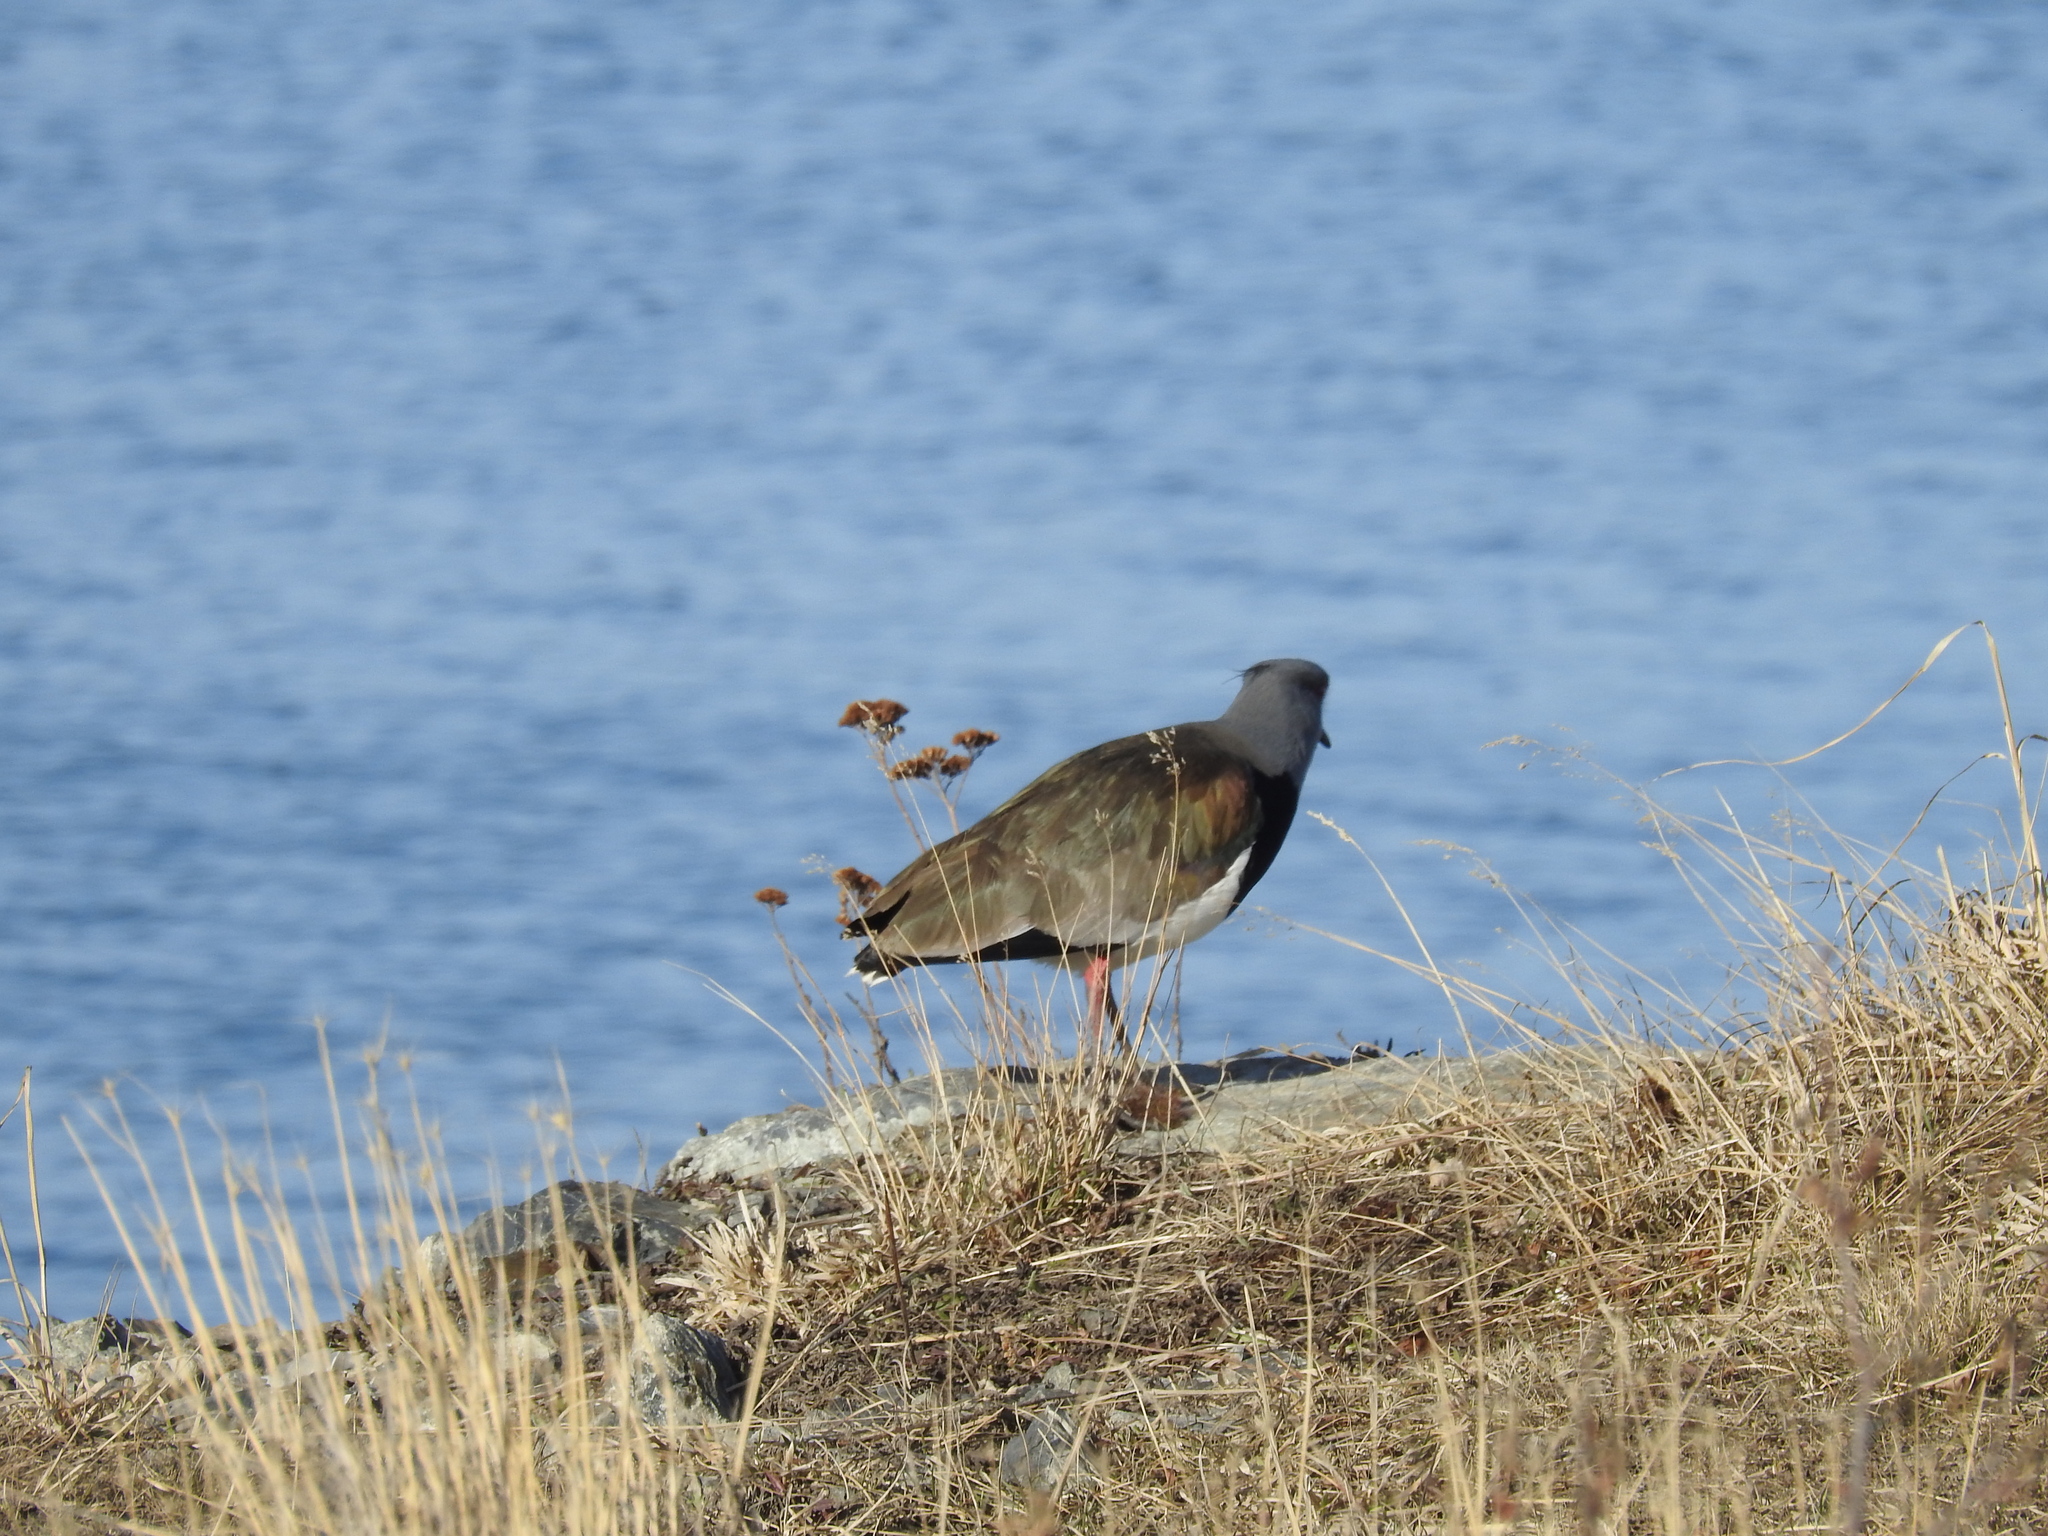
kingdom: Animalia
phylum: Chordata
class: Aves
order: Charadriiformes
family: Charadriidae
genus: Vanellus
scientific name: Vanellus chilensis
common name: Southern lapwing
